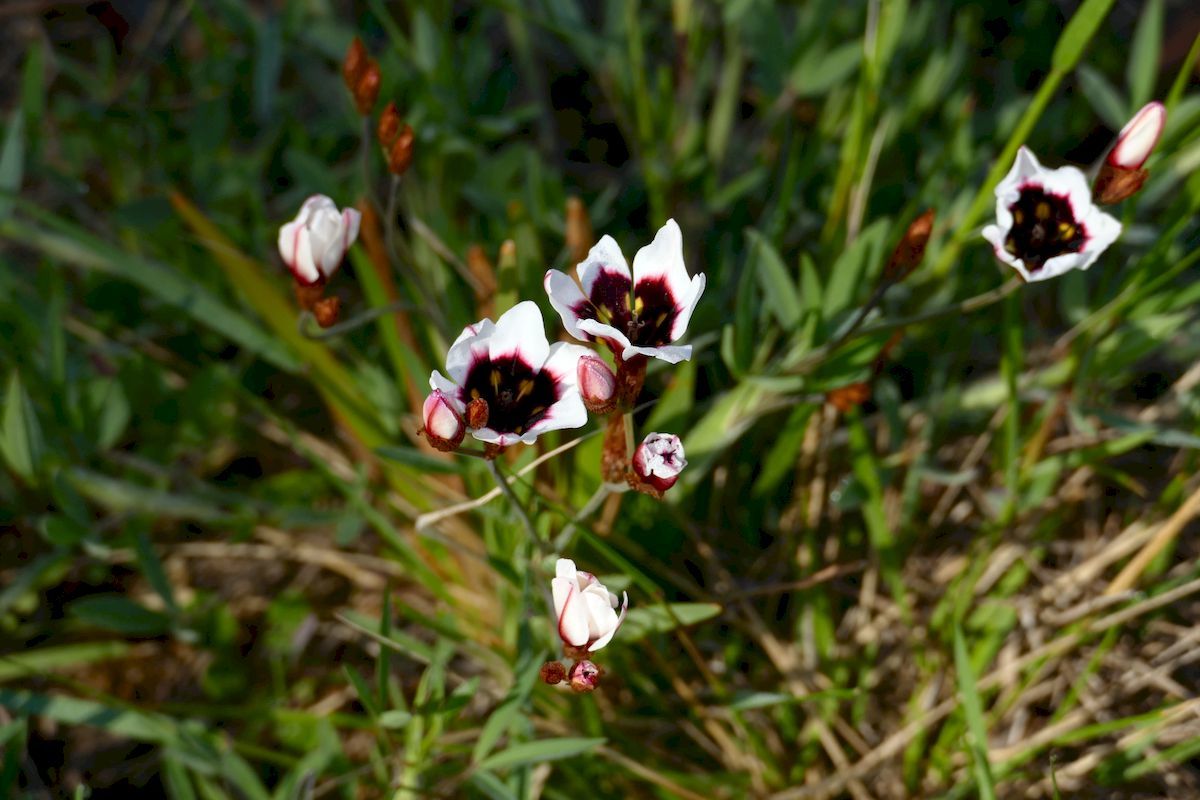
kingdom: Plantae
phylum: Tracheophyta
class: Liliopsida
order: Asparagales
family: Iridaceae
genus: Sparaxis
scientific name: Sparaxis tricolor
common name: Wandflower
